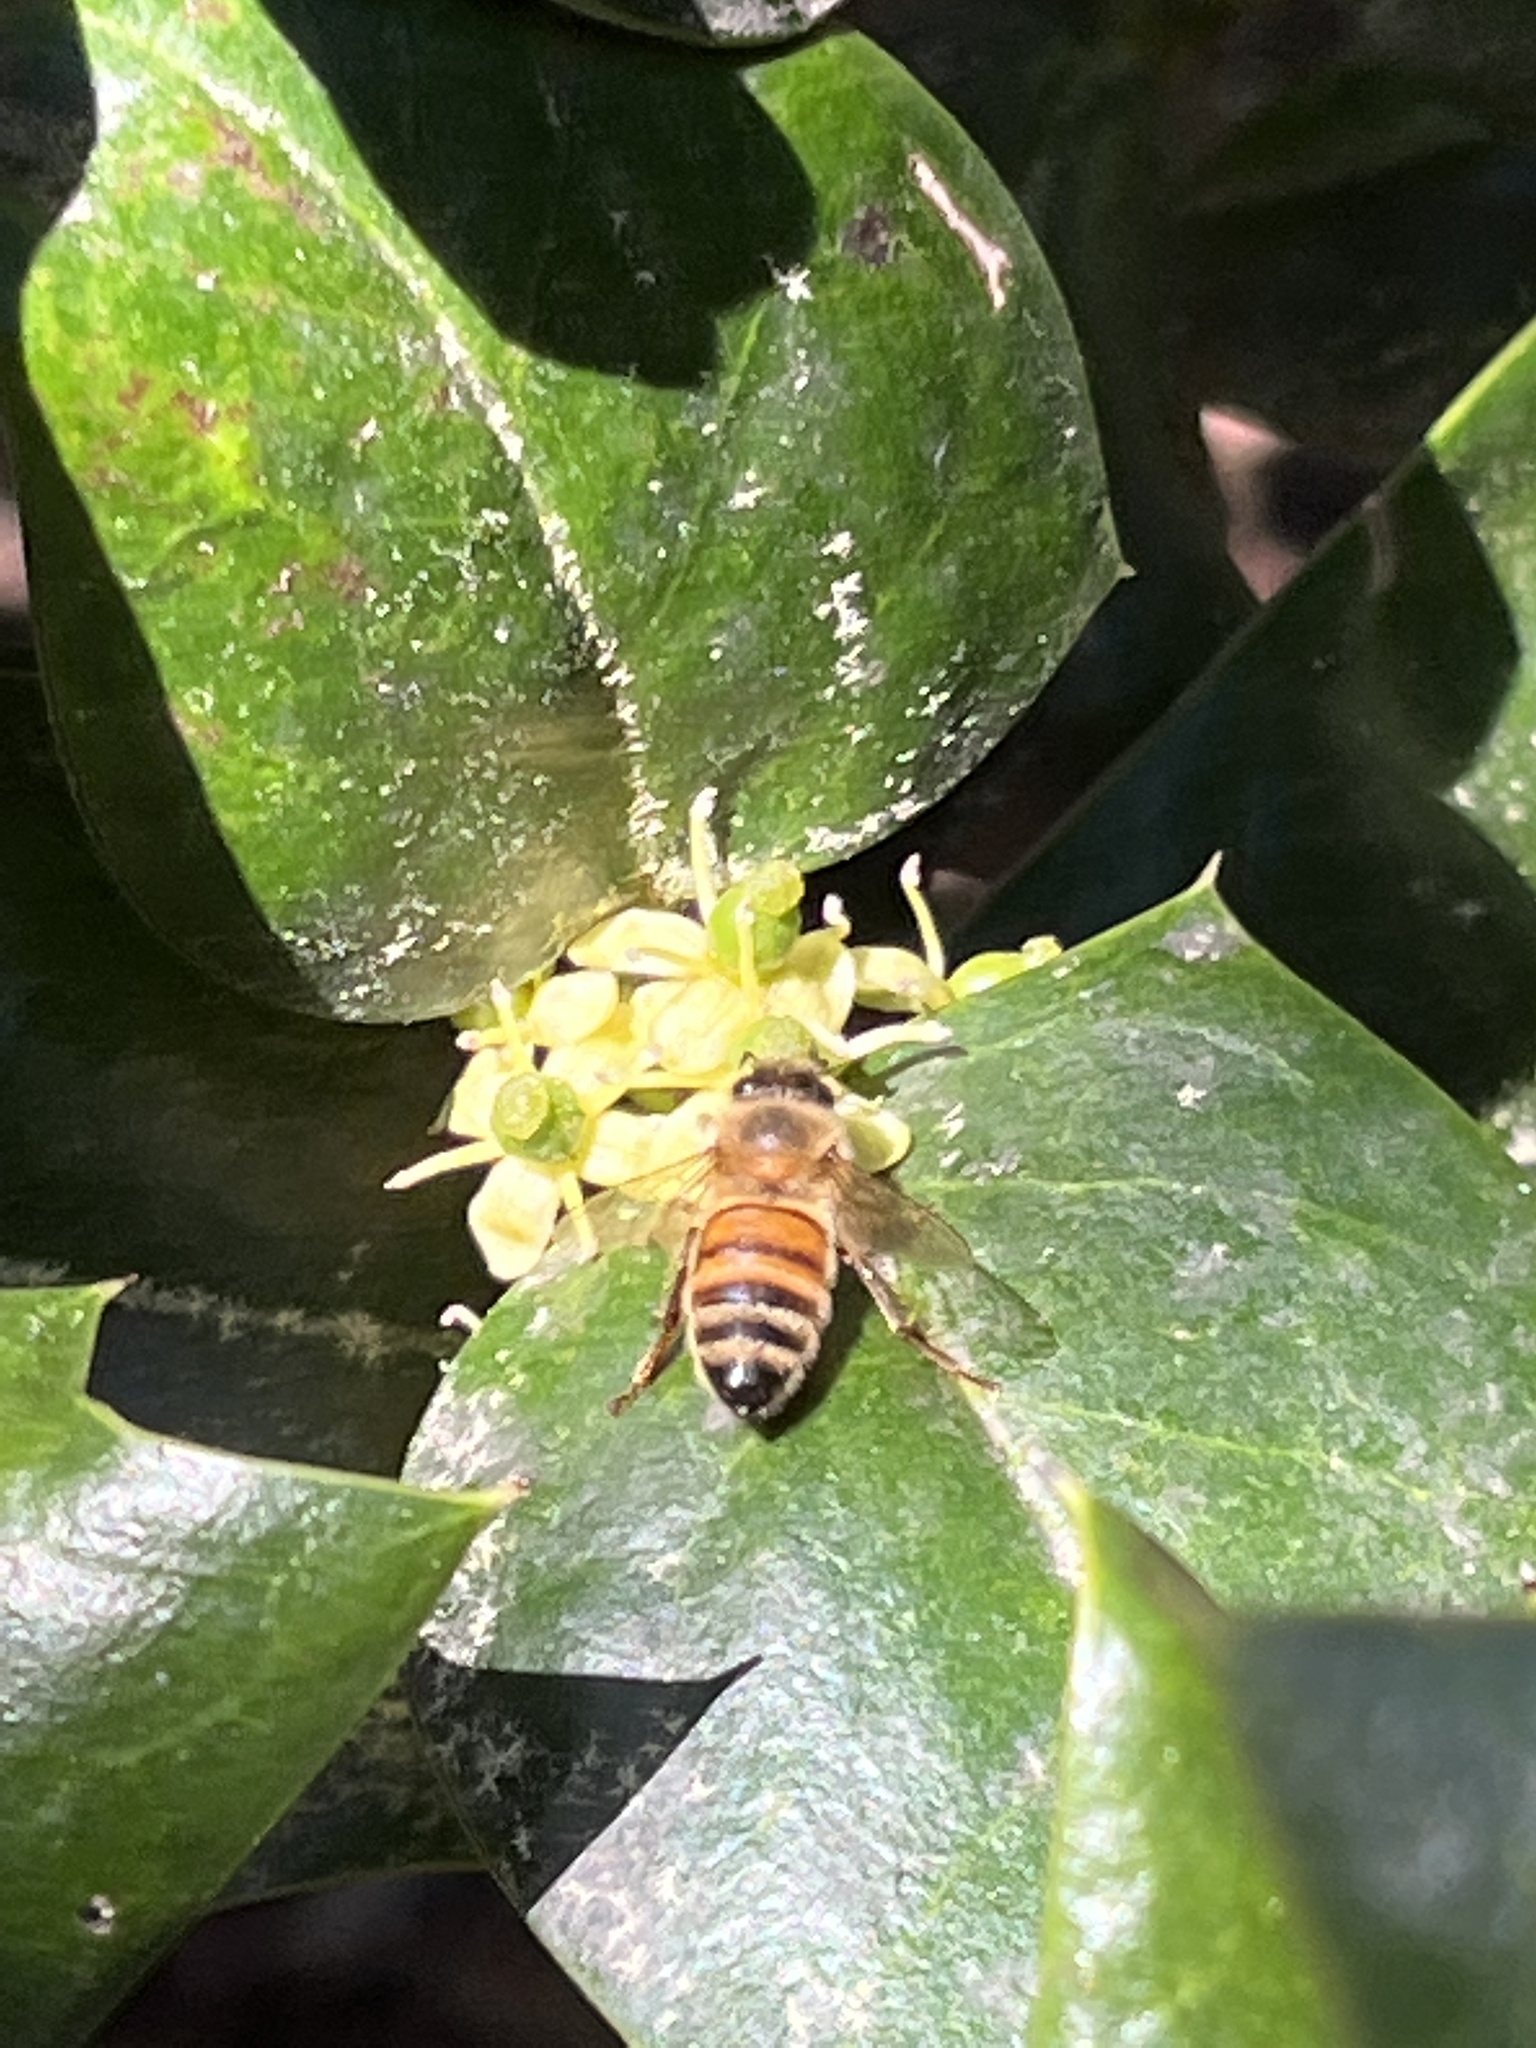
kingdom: Animalia
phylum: Arthropoda
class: Insecta
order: Hymenoptera
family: Apidae
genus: Apis
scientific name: Apis mellifera
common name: Honey bee
